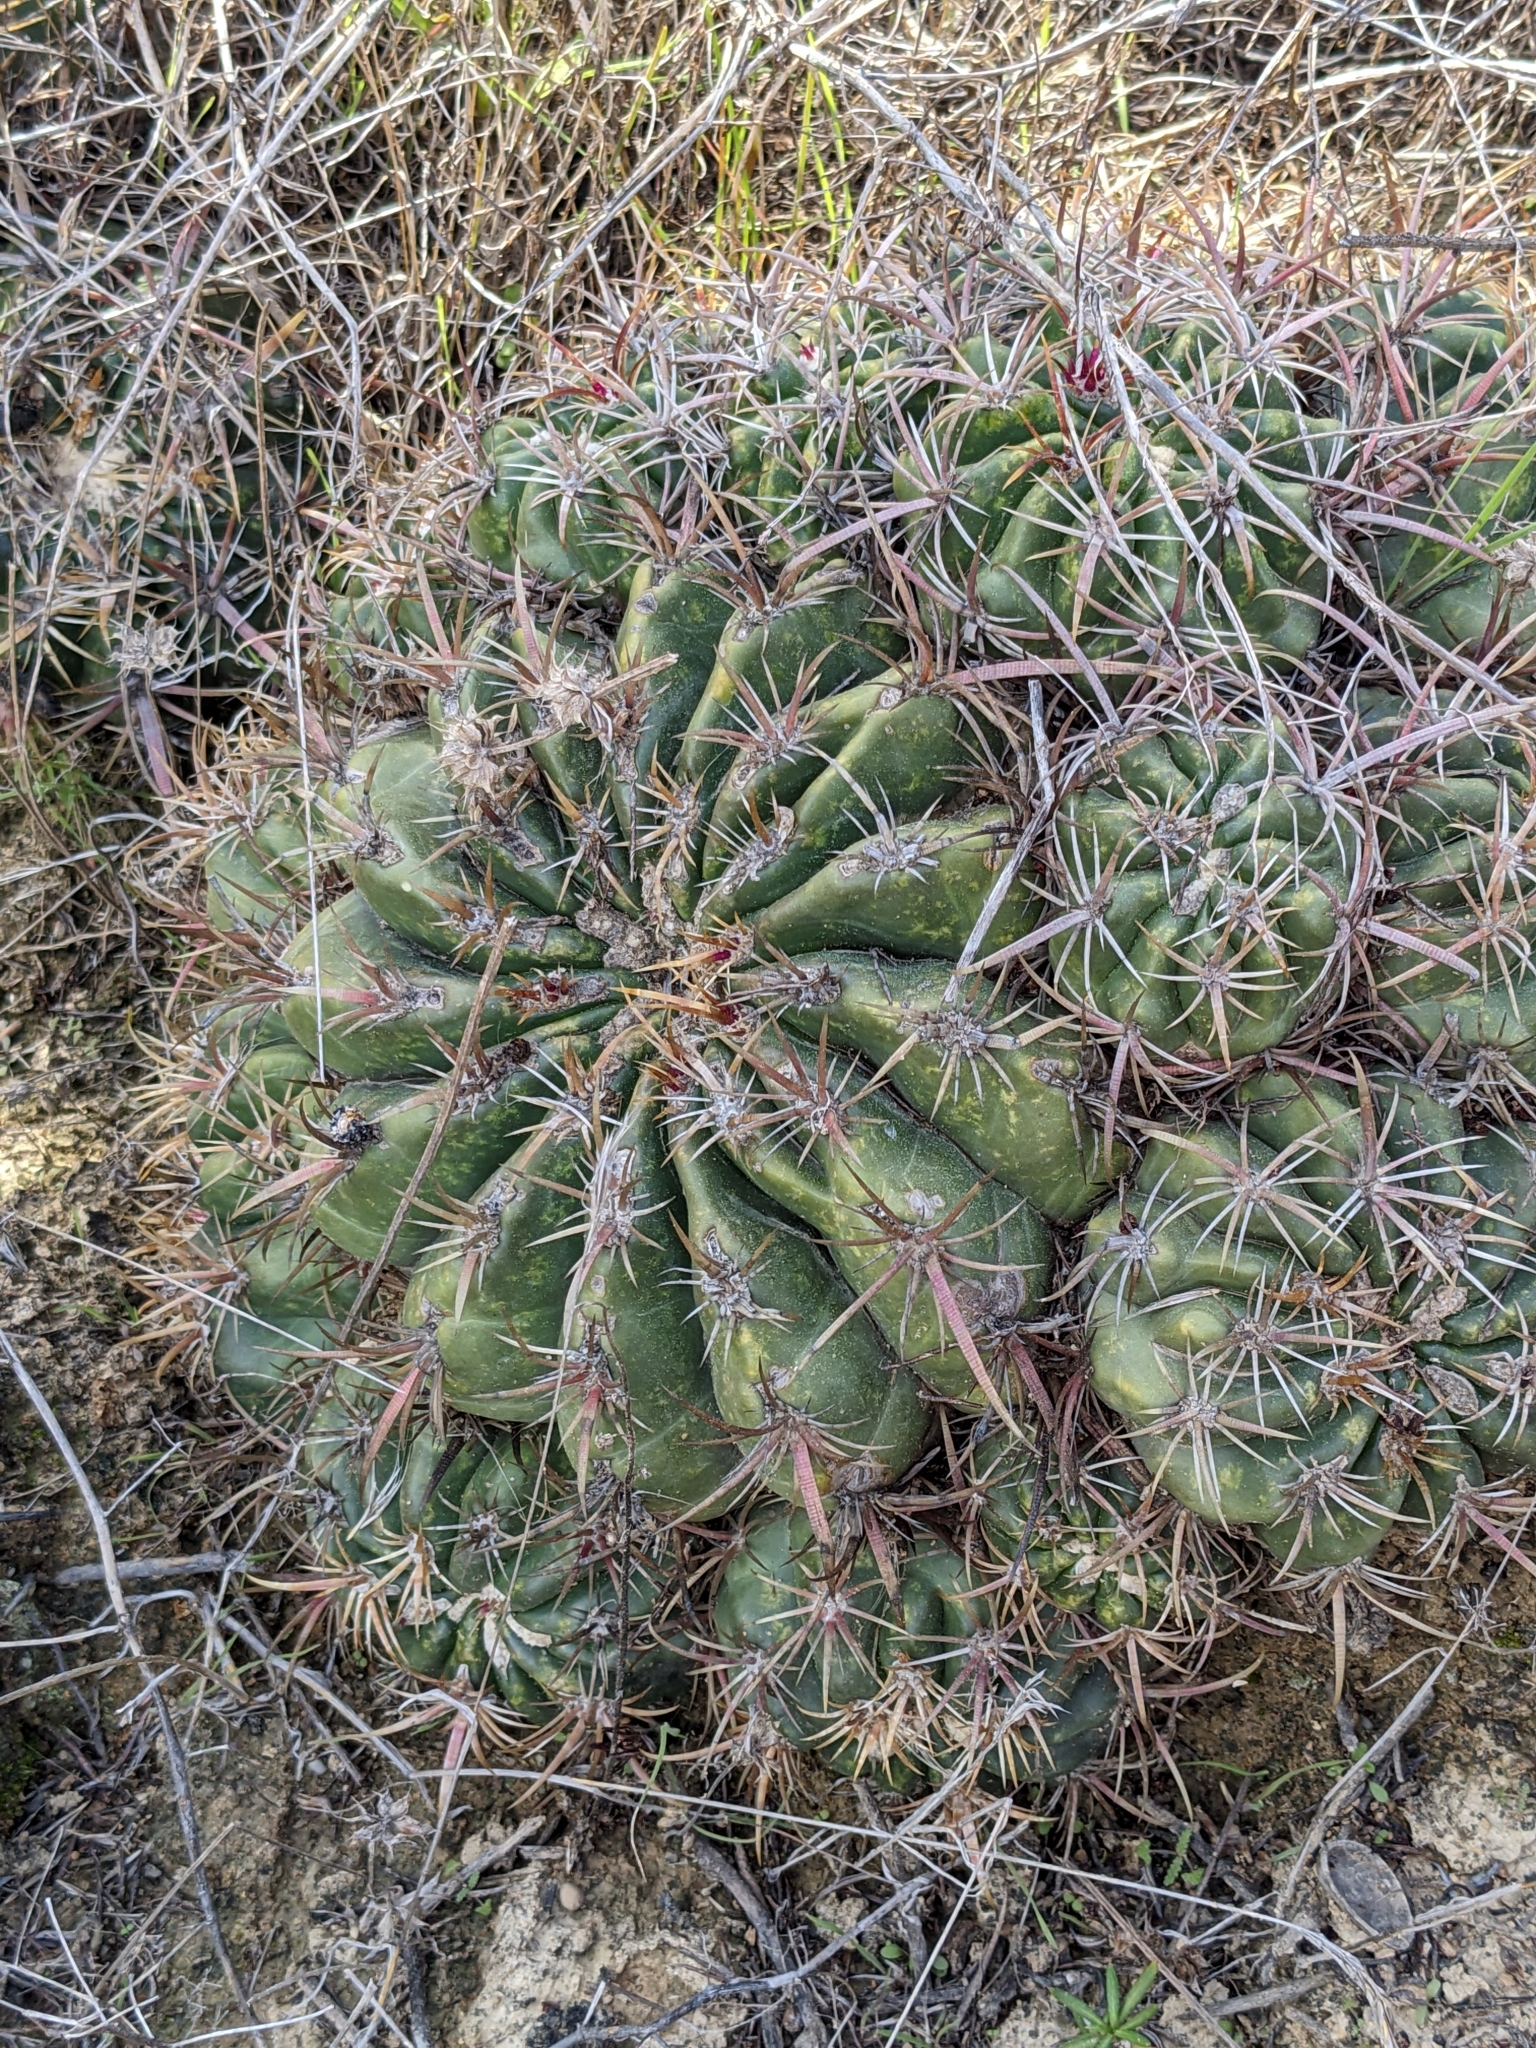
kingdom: Plantae
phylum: Tracheophyta
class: Magnoliopsida
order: Caryophyllales
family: Cactaceae
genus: Ferocactus
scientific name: Ferocactus viridescens
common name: San diego barrel cactus
